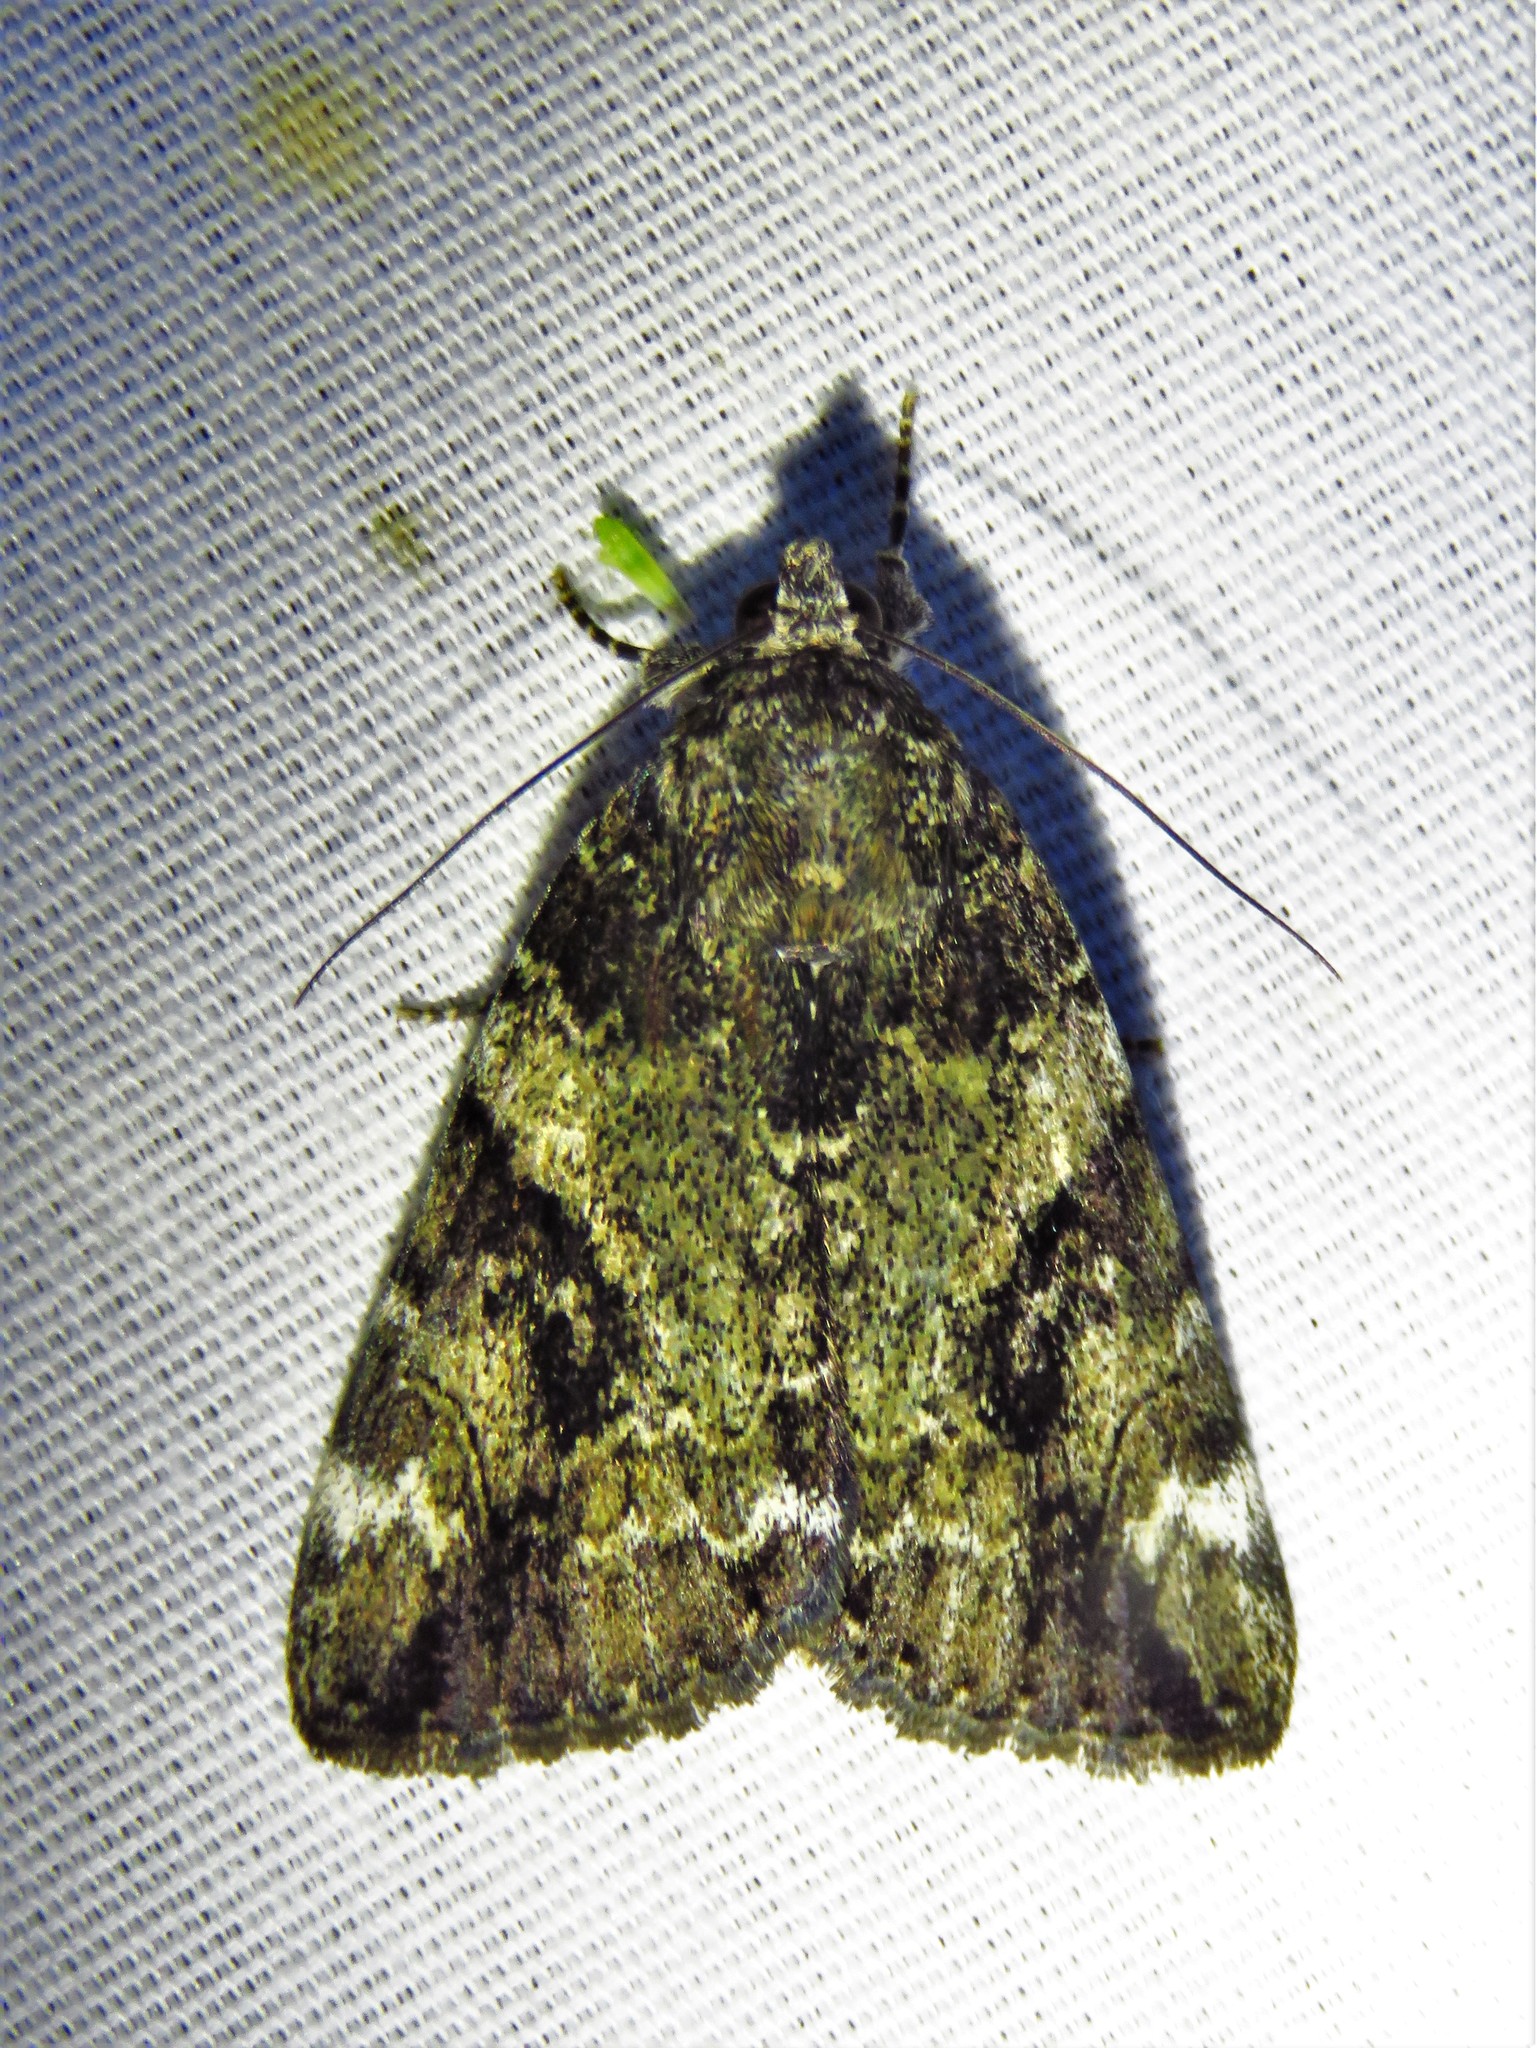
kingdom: Animalia
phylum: Arthropoda
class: Insecta
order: Lepidoptera
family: Erebidae
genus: Catocala
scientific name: Catocala micronympha
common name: Little nymph underwing
